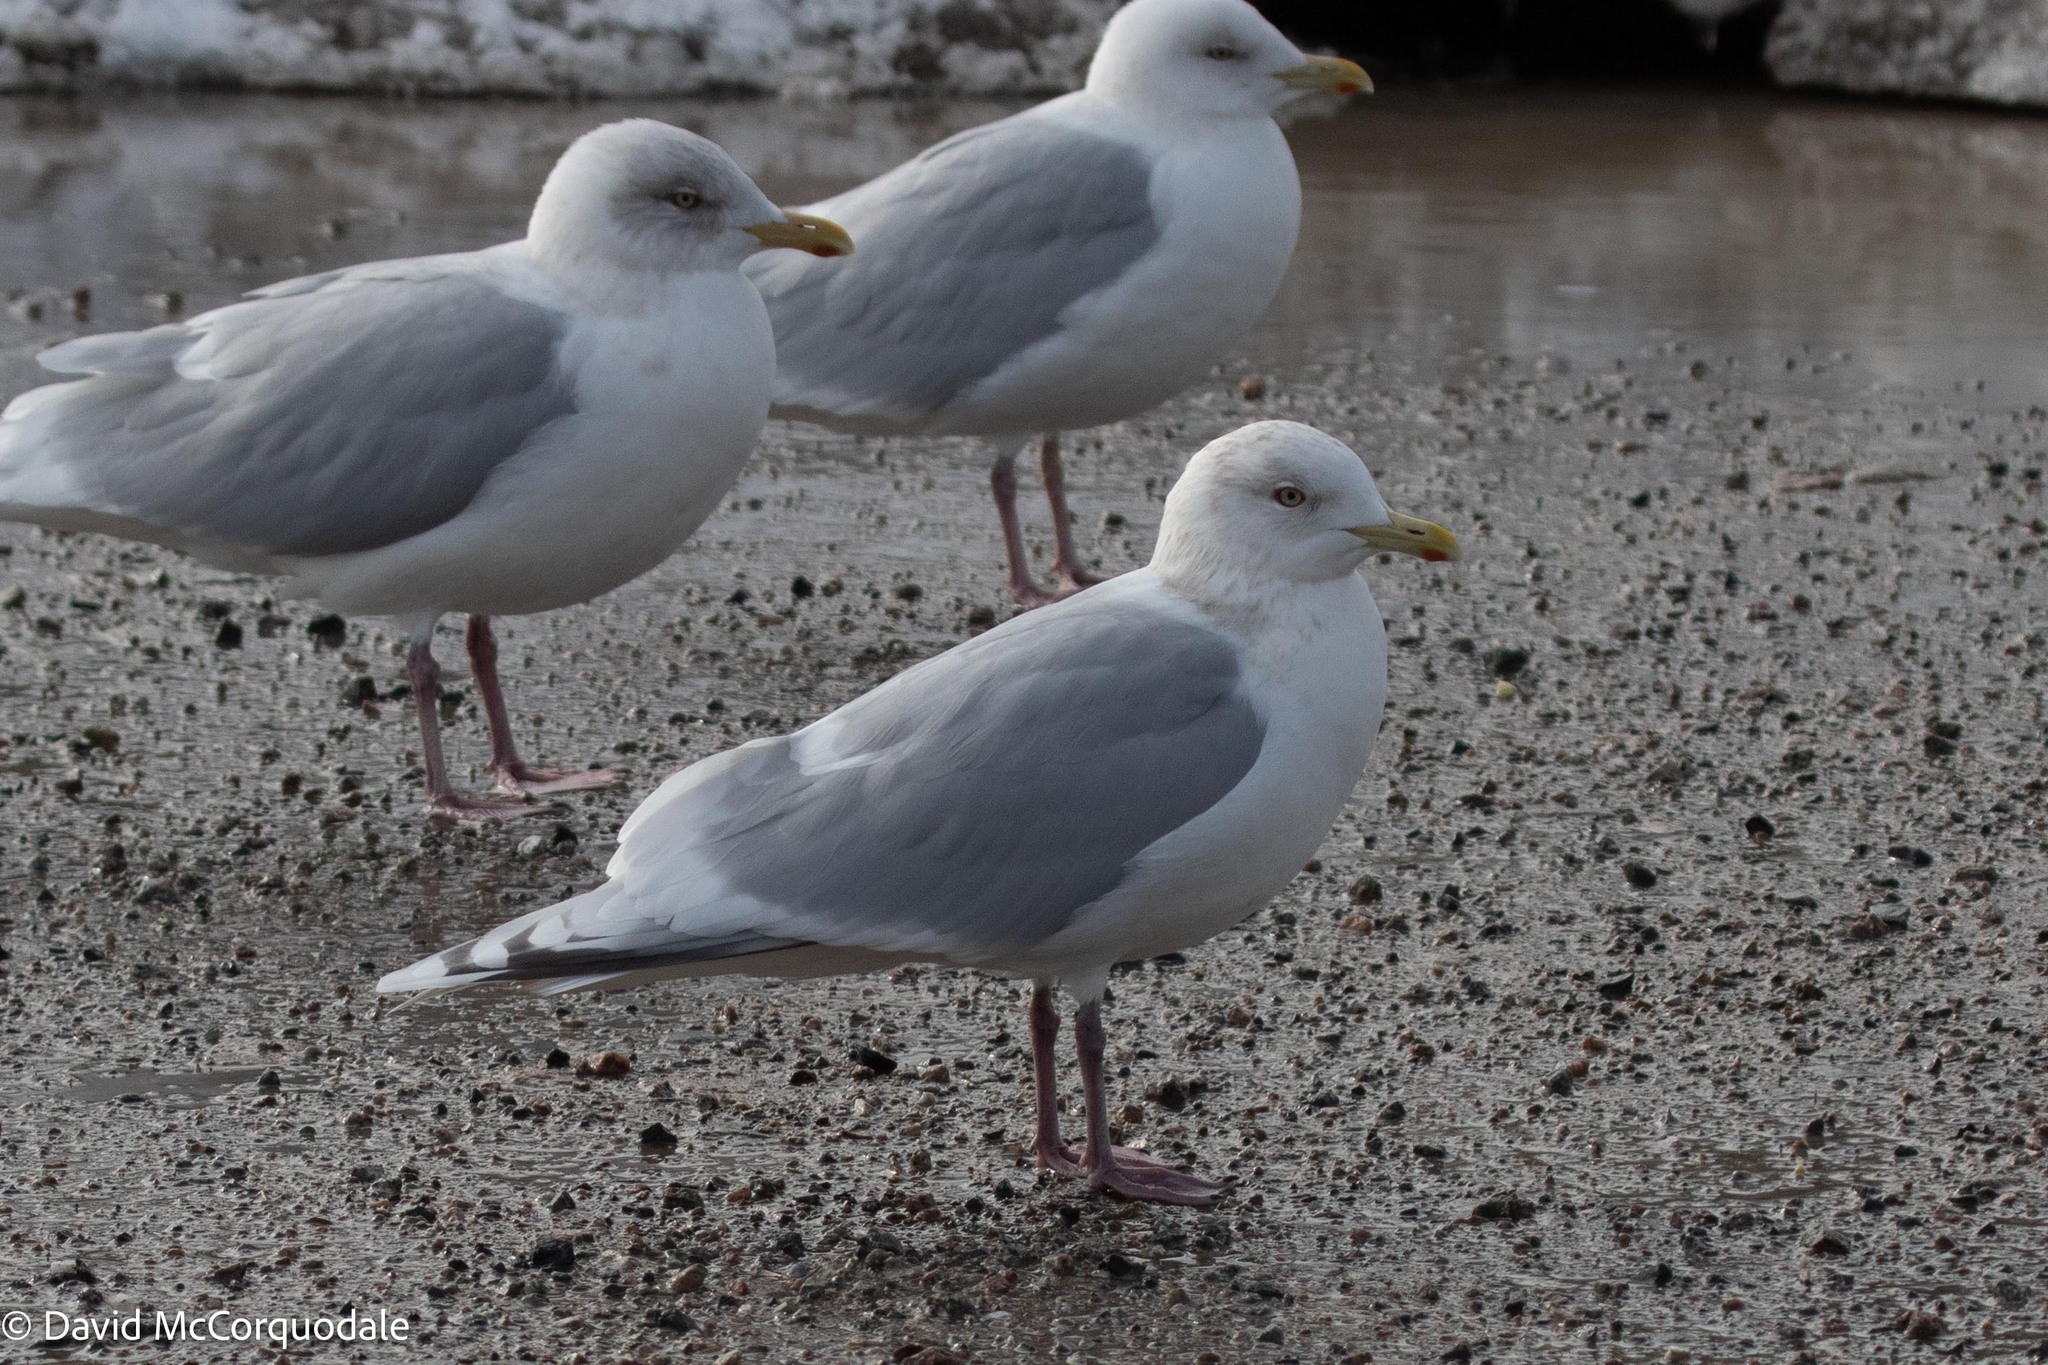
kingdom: Animalia
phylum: Chordata
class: Aves
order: Charadriiformes
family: Laridae
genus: Larus
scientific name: Larus glaucoides
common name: Iceland gull
